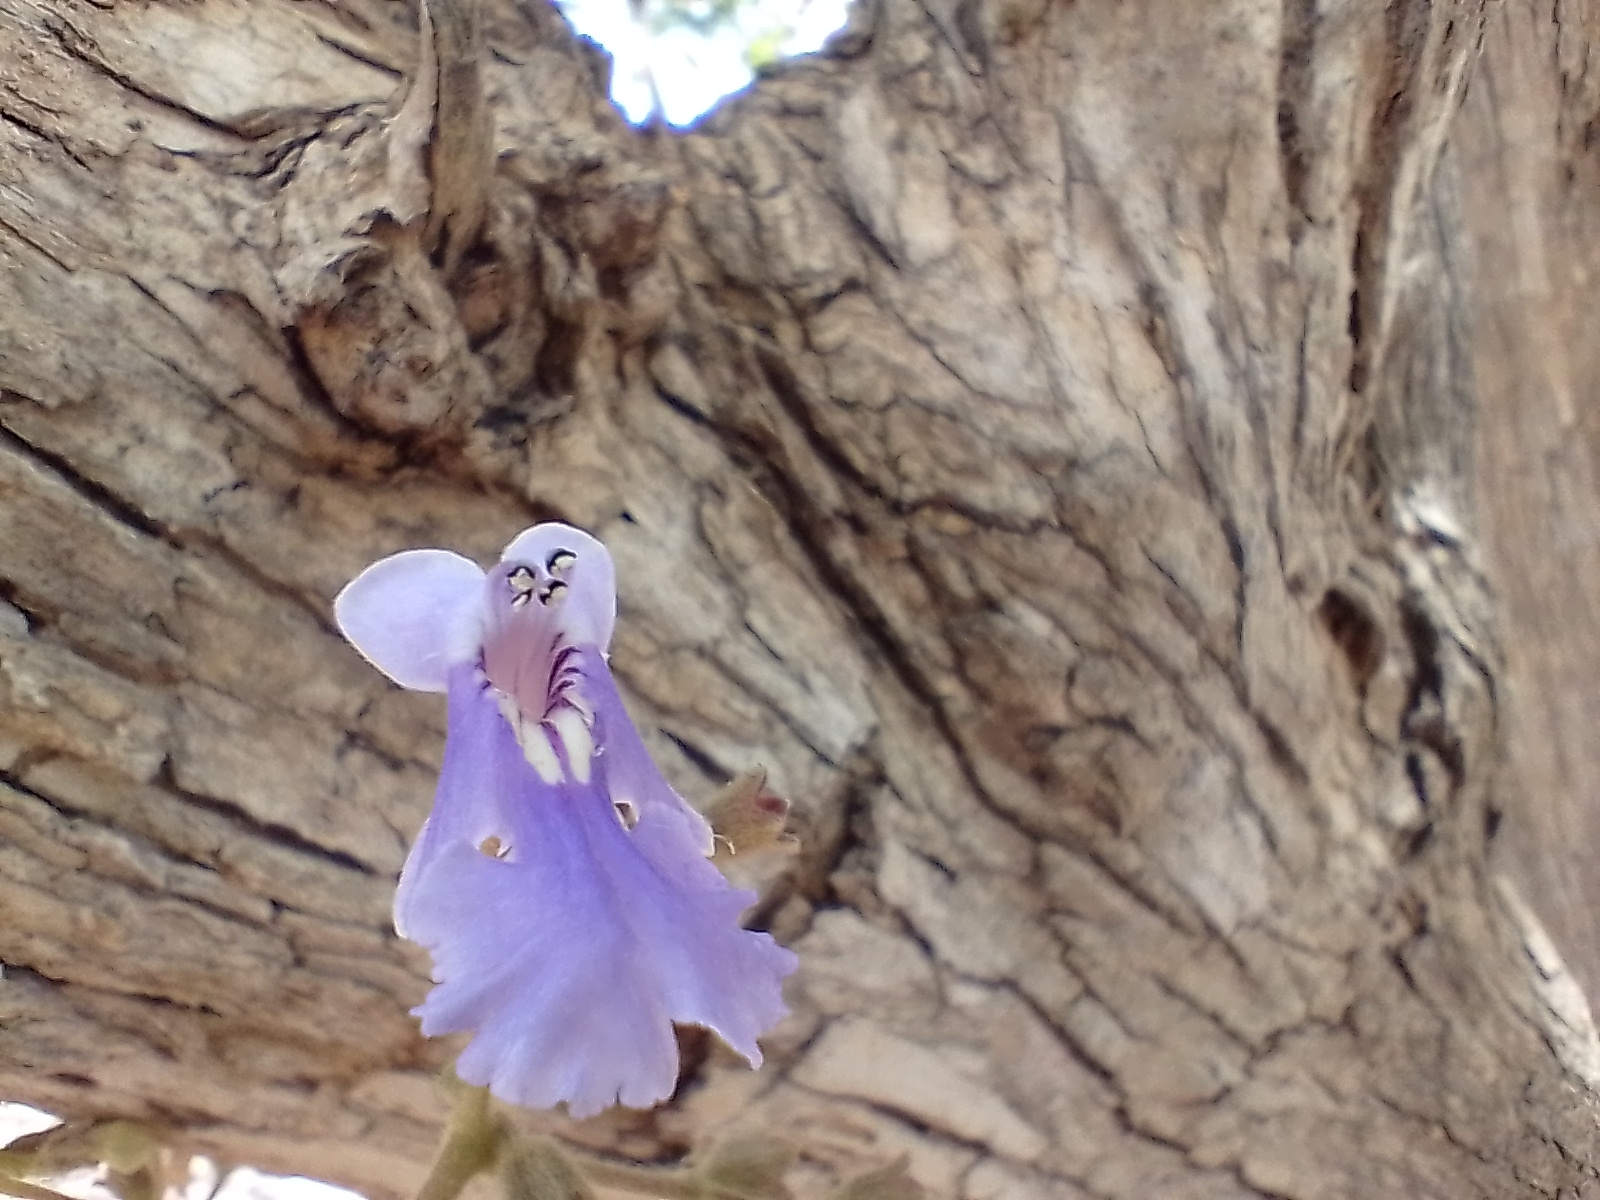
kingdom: Plantae
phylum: Tracheophyta
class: Magnoliopsida
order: Lamiales
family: Lamiaceae
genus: Vitex
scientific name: Vitex mollis
